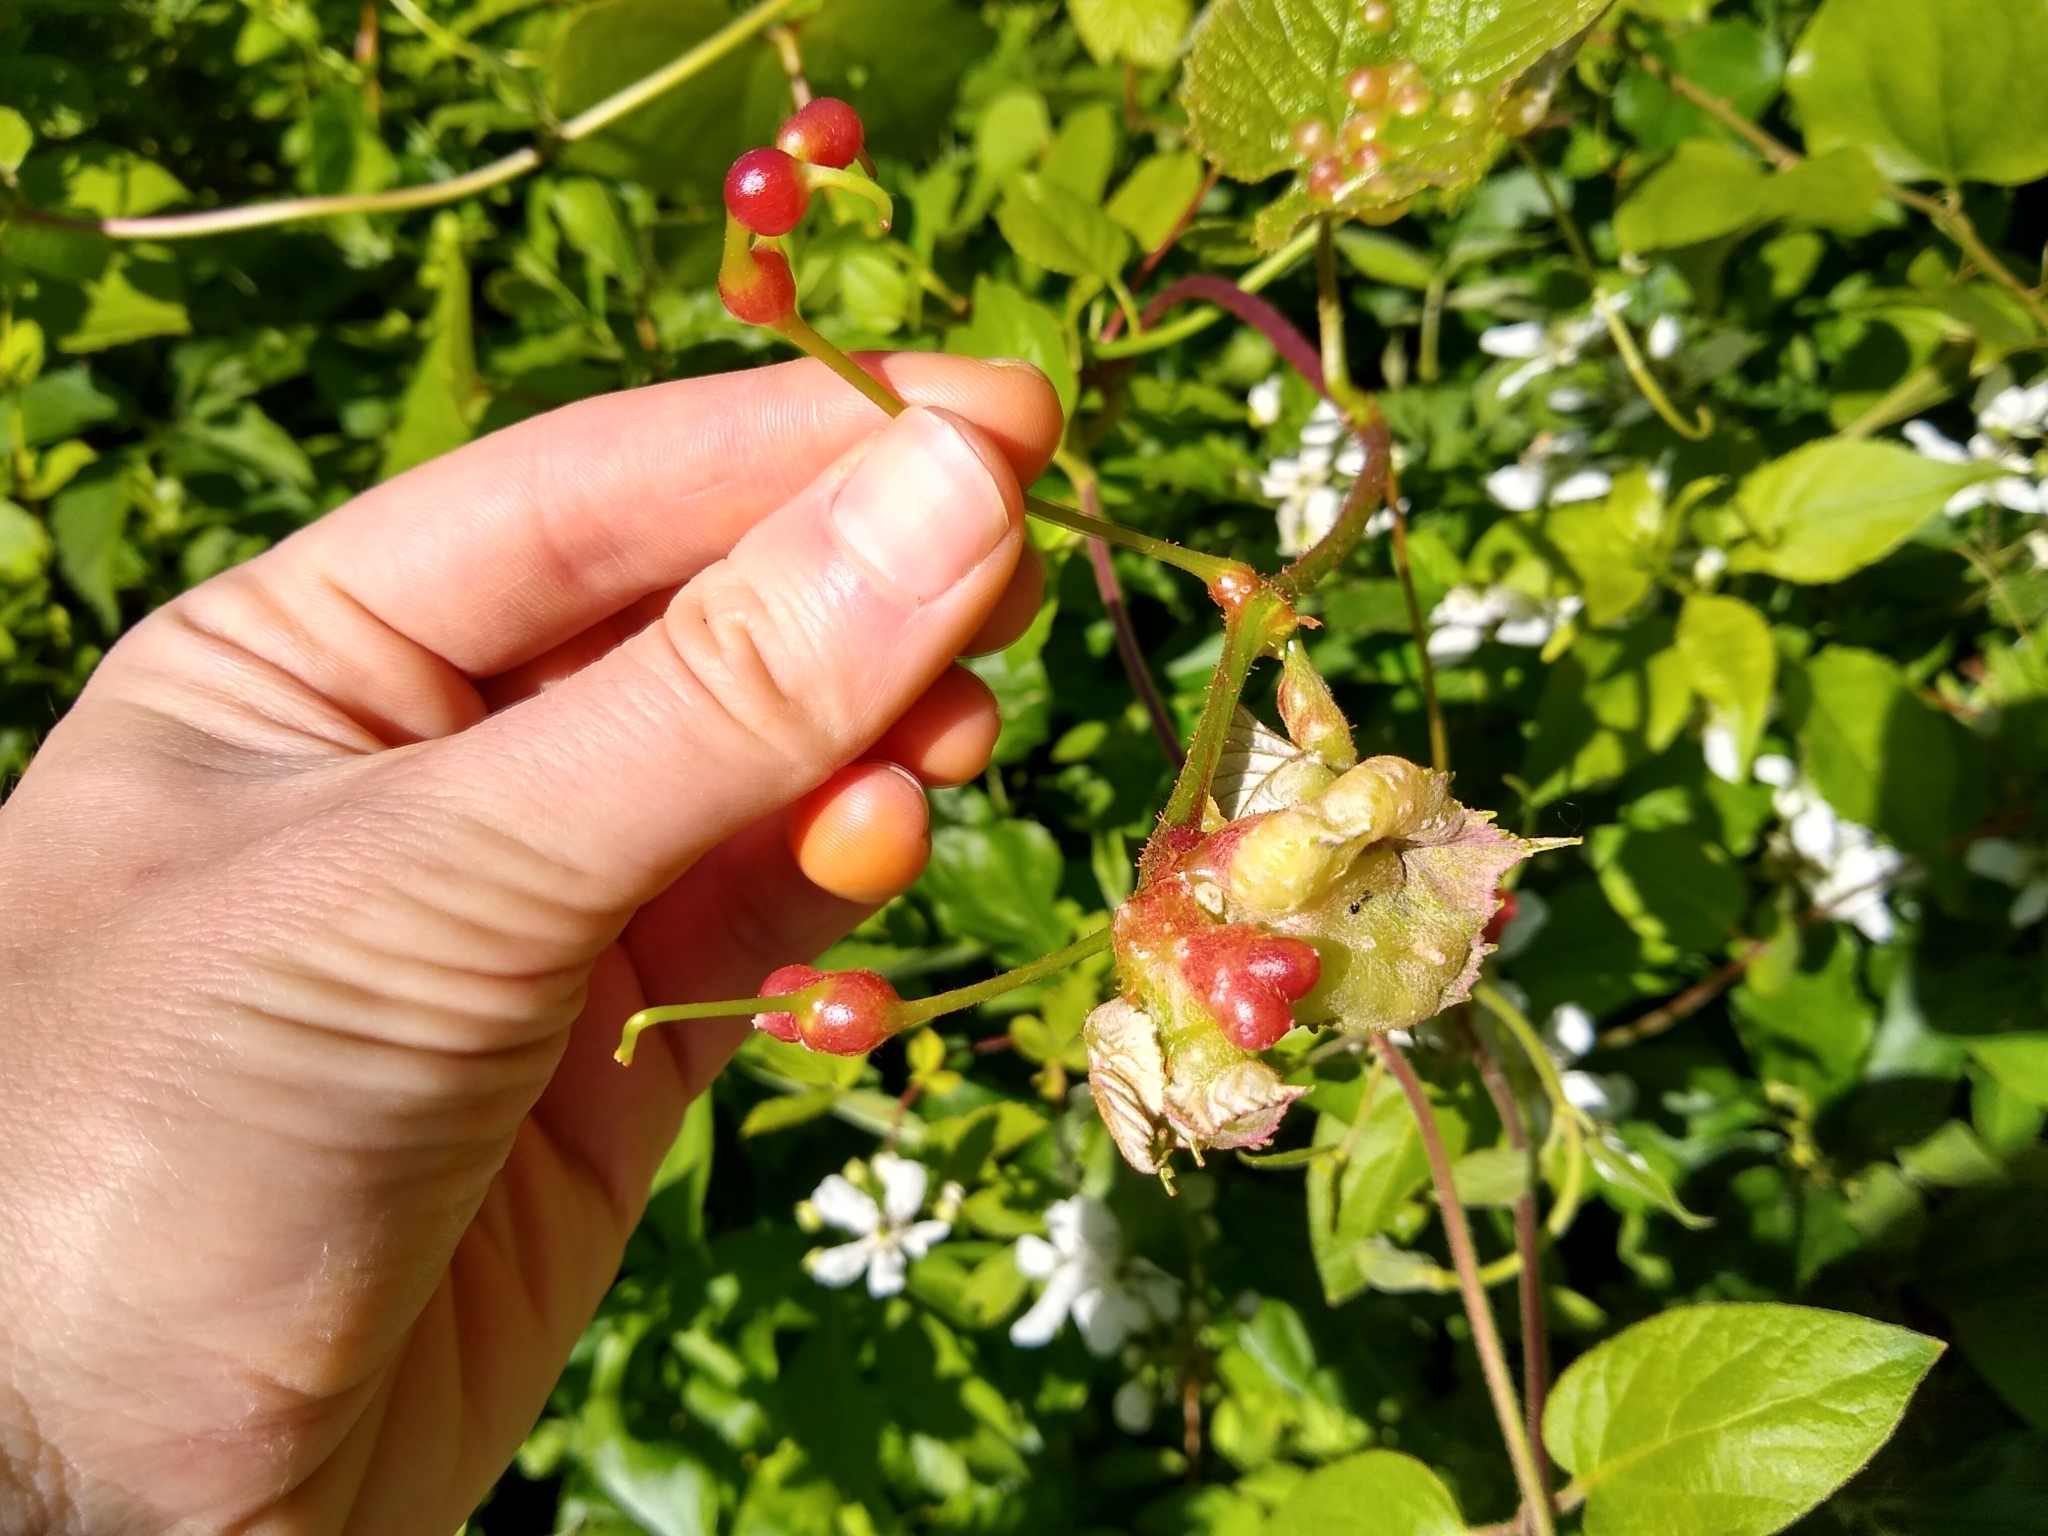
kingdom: Animalia
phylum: Arthropoda
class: Insecta
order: Diptera
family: Cecidomyiidae
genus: Vitisiella
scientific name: Vitisiella brevicauda
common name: Grape tumid gallmaker midge
